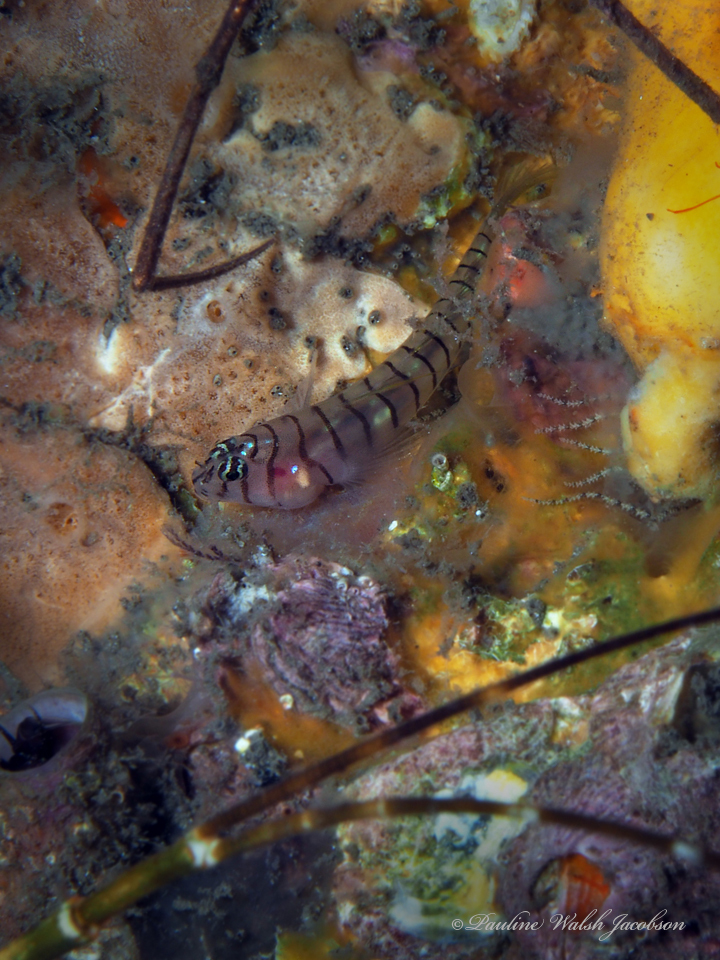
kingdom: Animalia
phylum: Chordata
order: Perciformes
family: Gobiidae
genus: Tigrigobius
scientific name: Tigrigobius macrodon
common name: Tiger goby
